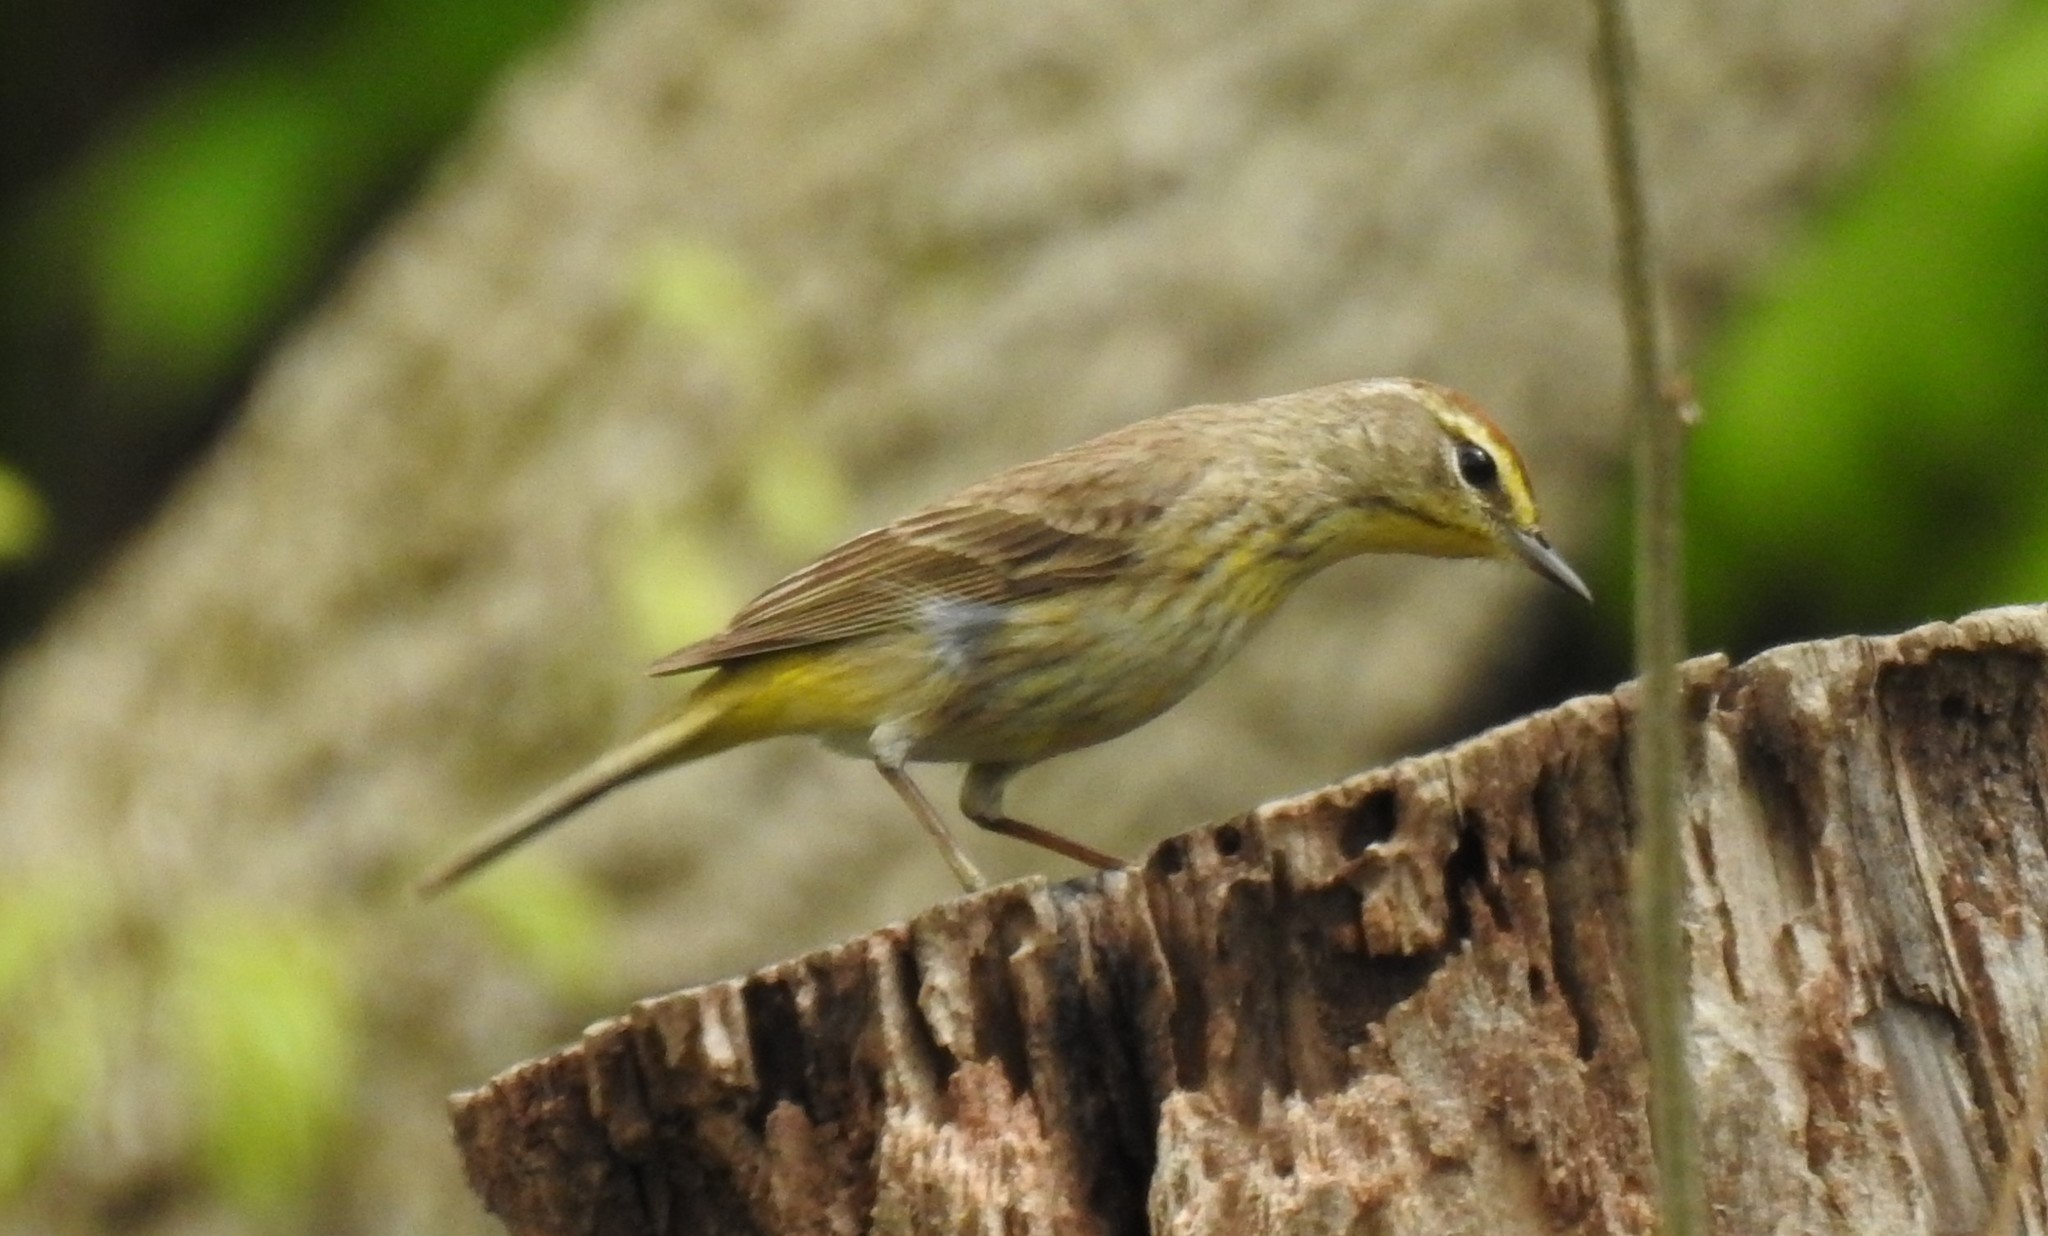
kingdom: Animalia
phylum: Chordata
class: Aves
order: Passeriformes
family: Parulidae
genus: Setophaga
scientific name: Setophaga palmarum
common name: Palm warbler
